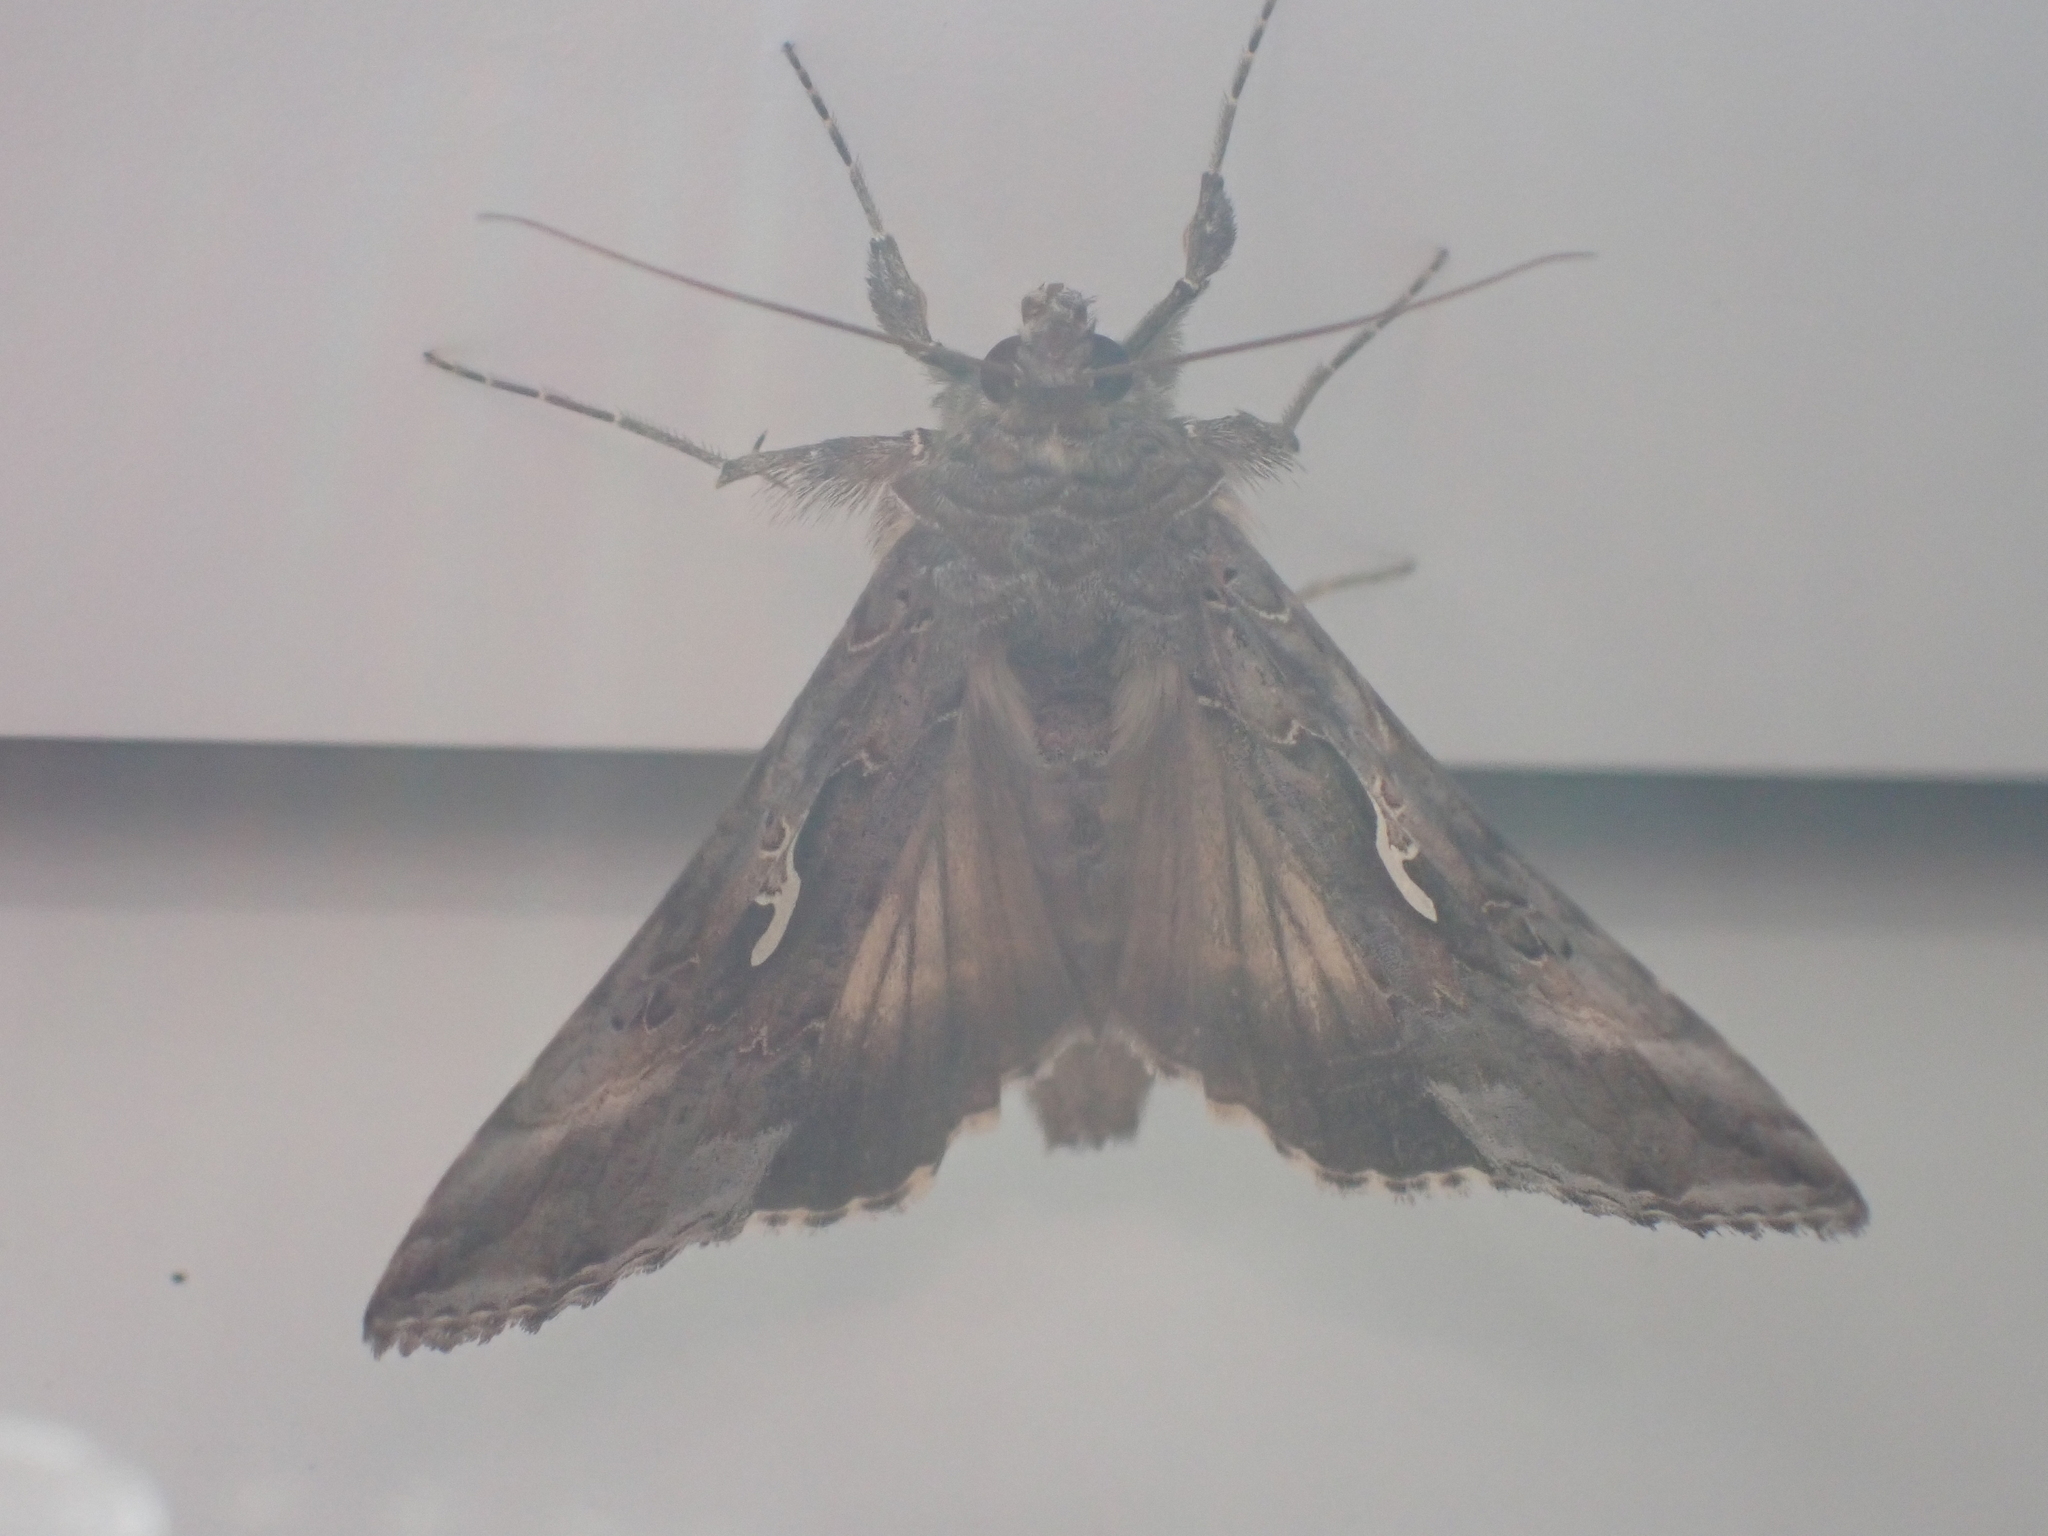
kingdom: Animalia
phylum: Arthropoda
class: Insecta
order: Lepidoptera
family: Noctuidae
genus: Autographa
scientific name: Autographa gamma
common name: Silver y
